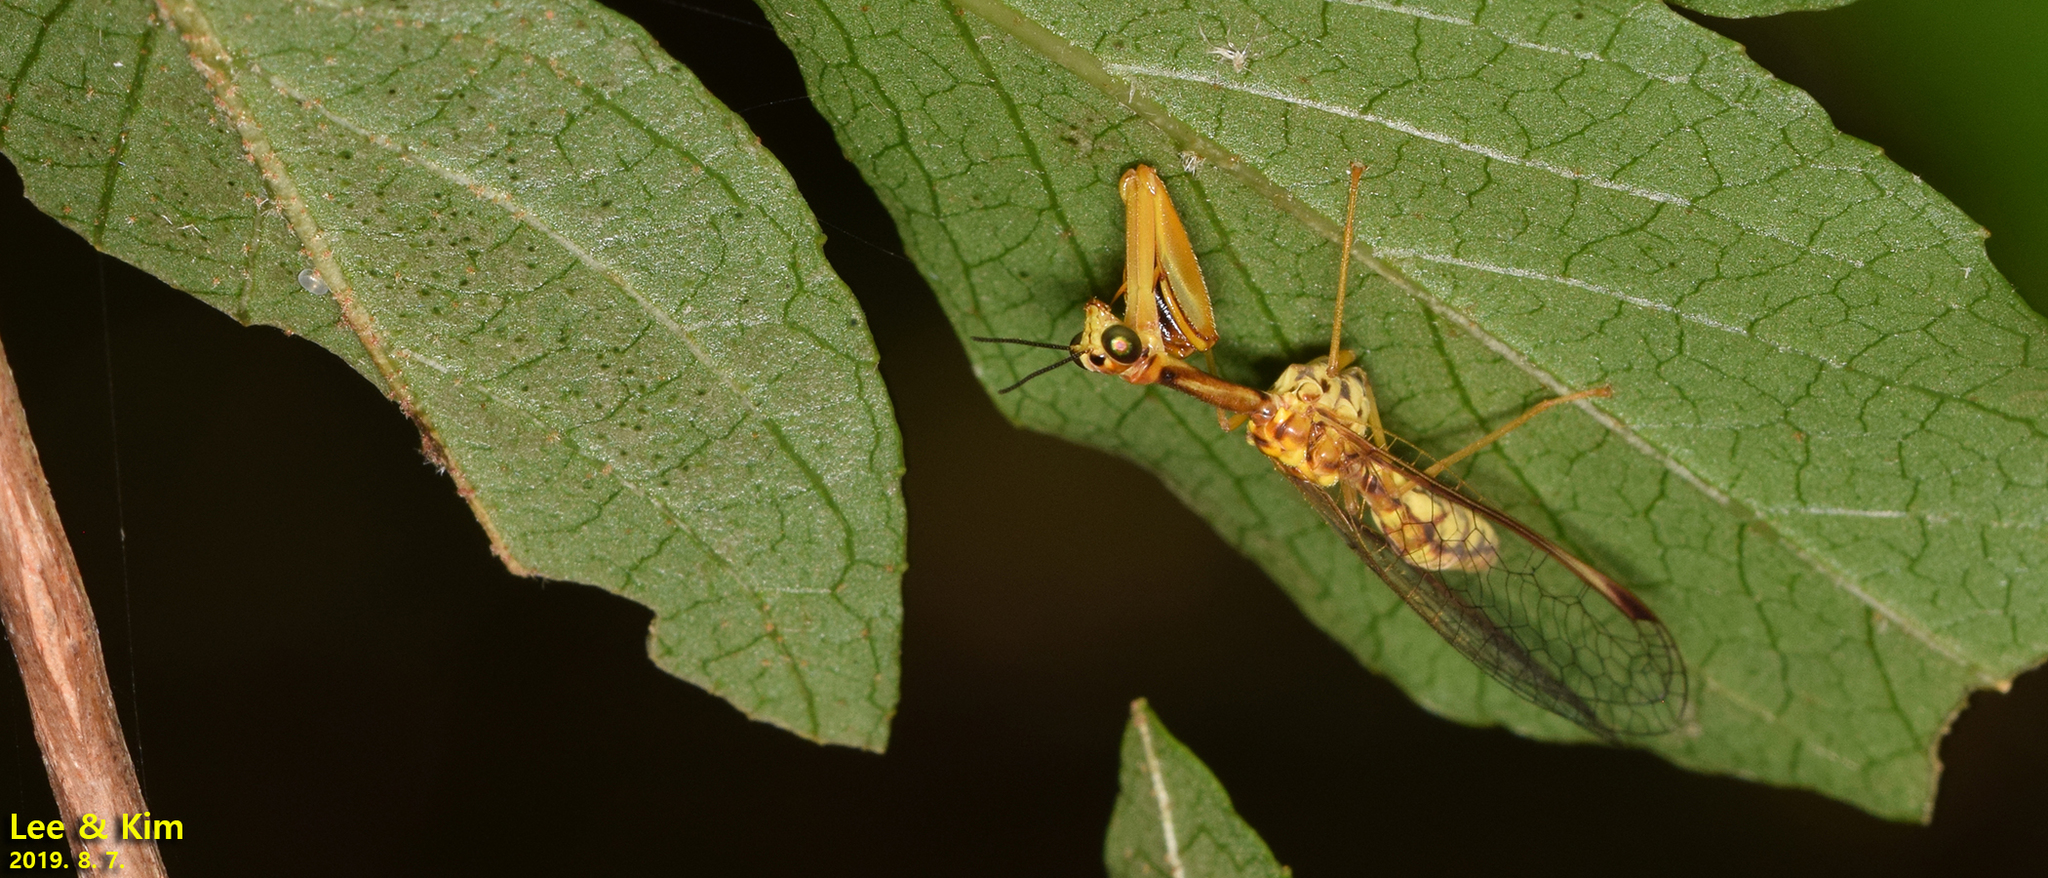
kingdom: Animalia
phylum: Arthropoda
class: Insecta
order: Neuroptera
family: Mantispidae
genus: Mantispa
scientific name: Mantispa japonica
